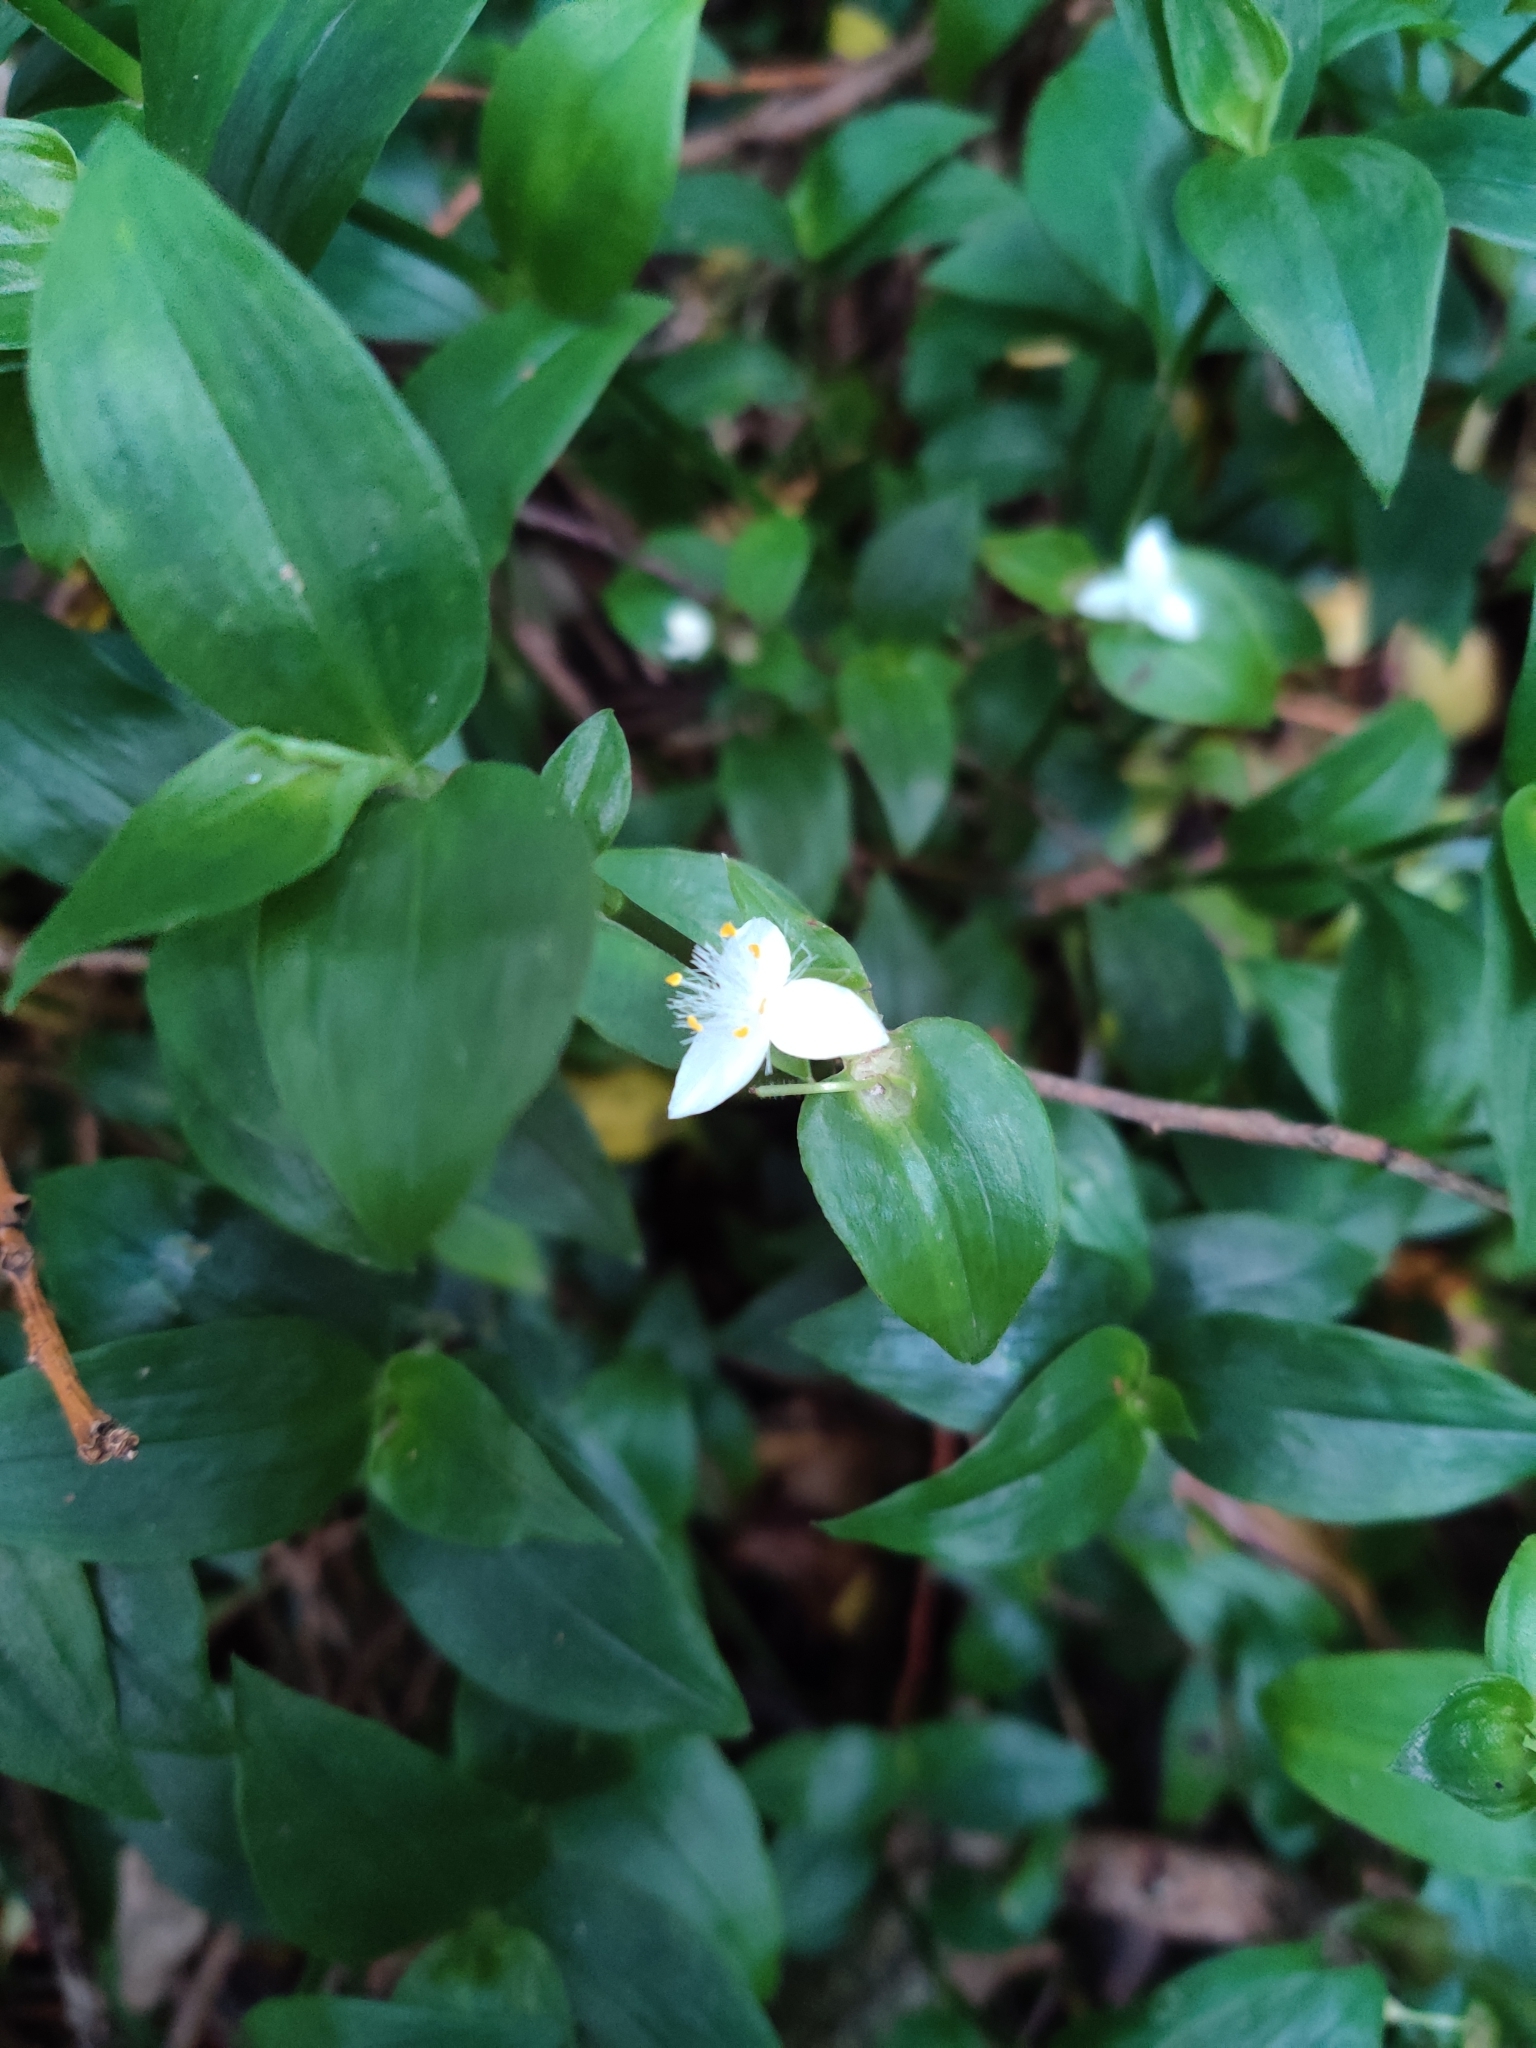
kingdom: Plantae
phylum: Tracheophyta
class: Liliopsida
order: Commelinales
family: Commelinaceae
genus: Tradescantia
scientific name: Tradescantia fluminensis
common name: Wandering-jew
